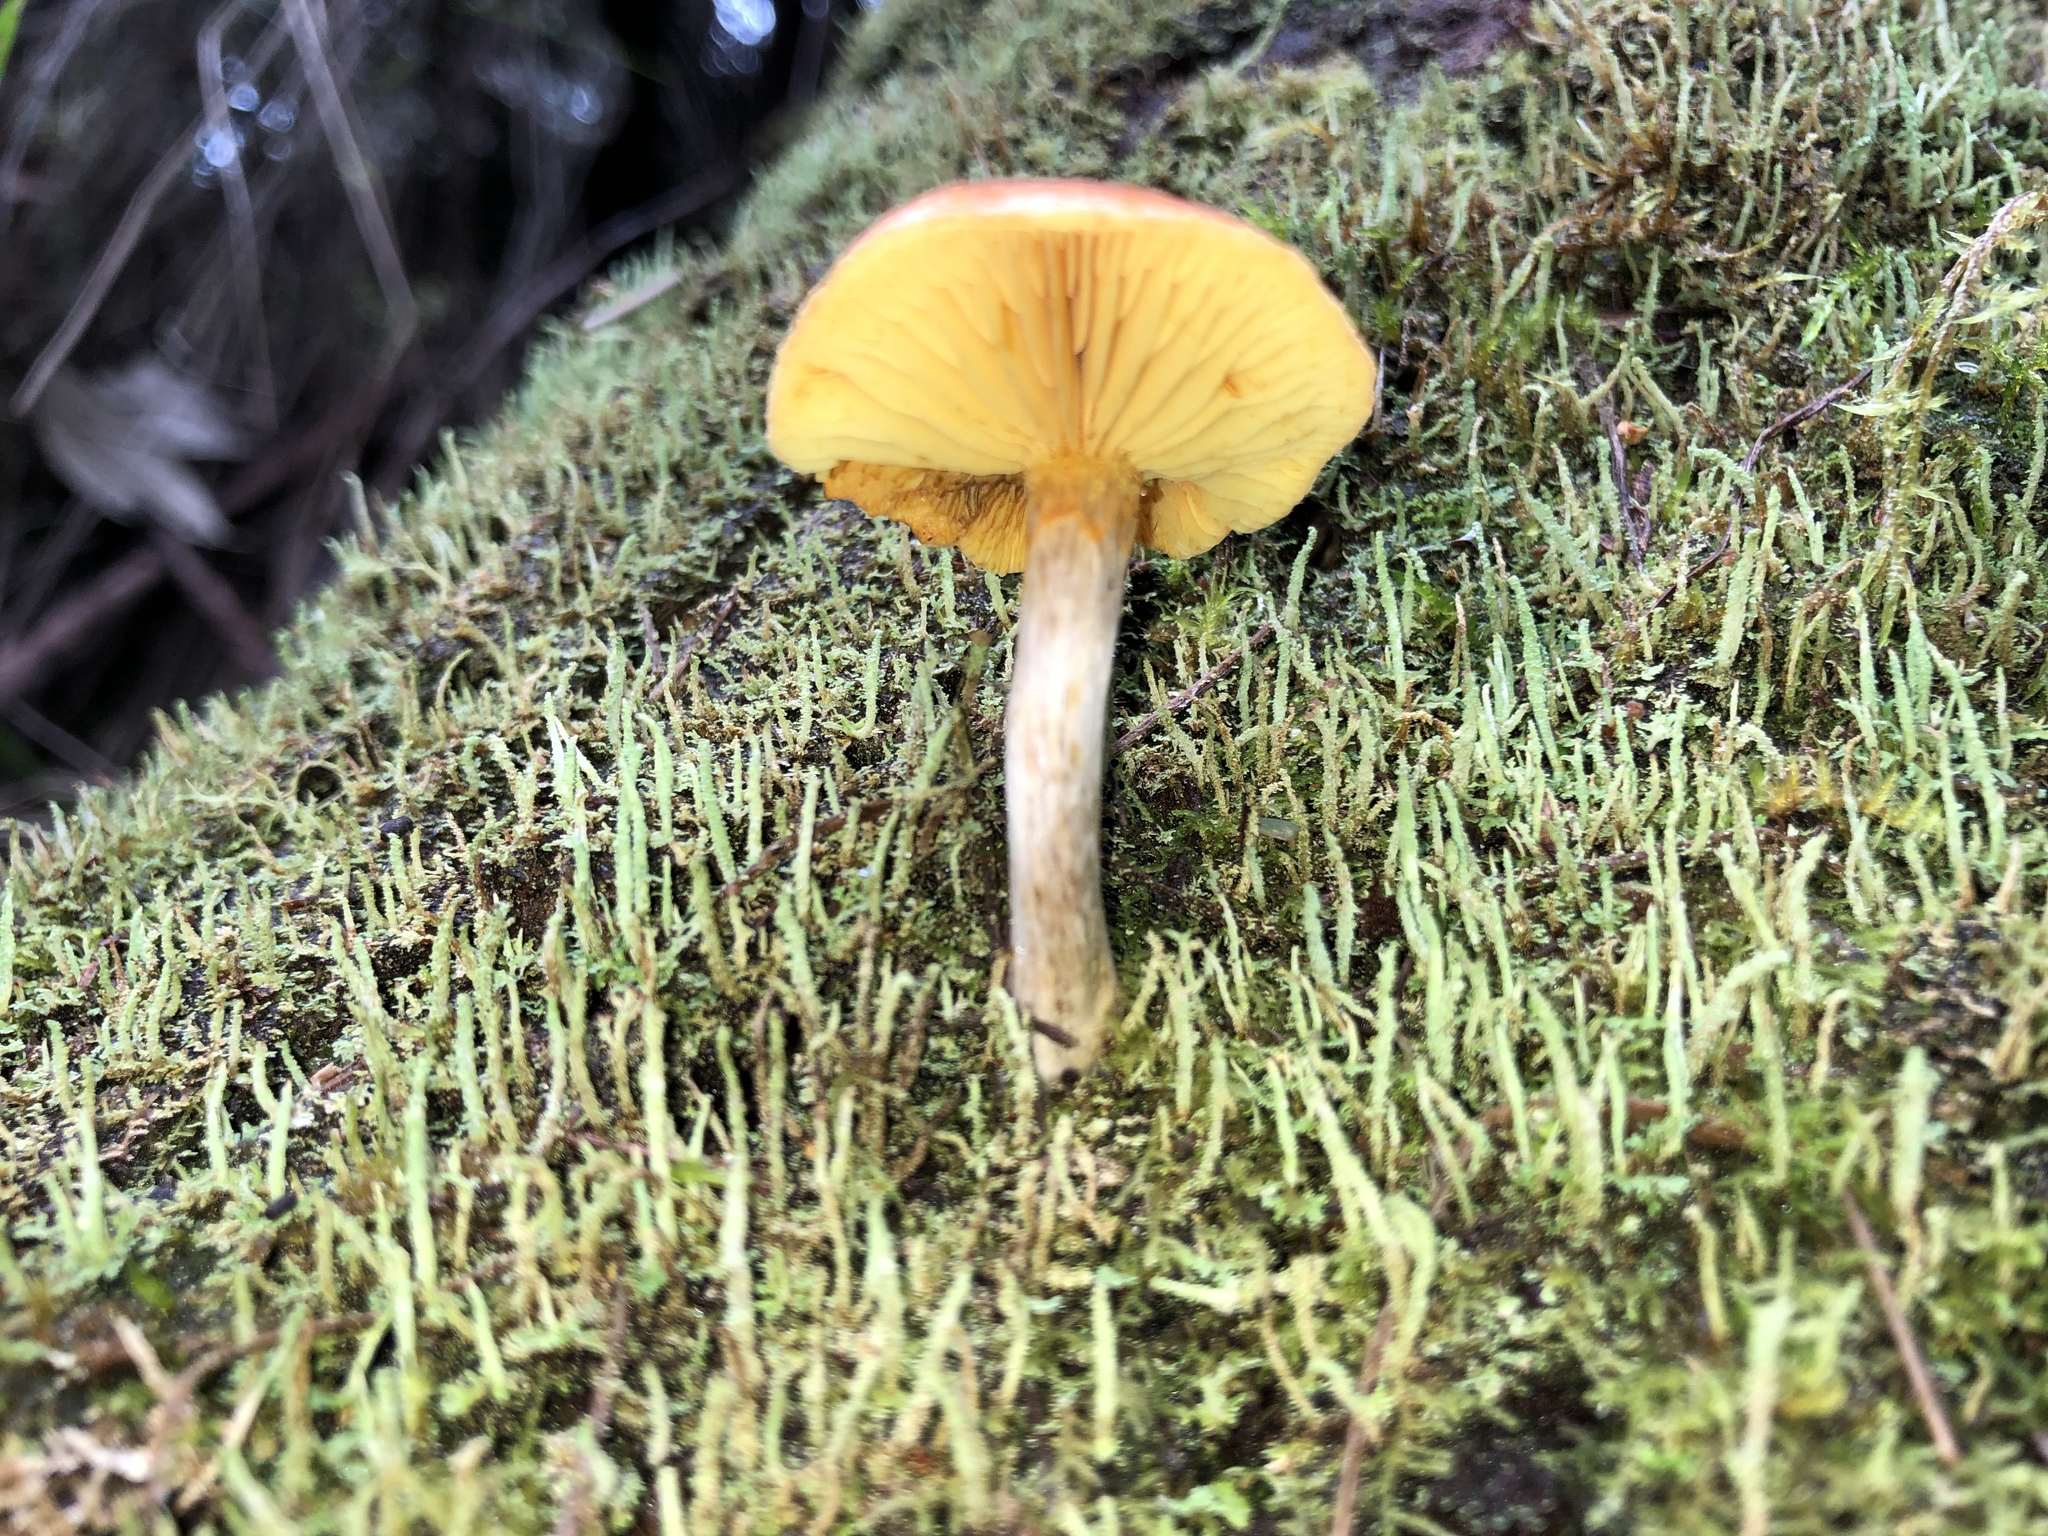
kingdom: Fungi
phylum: Basidiomycota
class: Agaricomycetes
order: Agaricales
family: Hymenogastraceae
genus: Gymnopilus
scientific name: Gymnopilus allantopus
